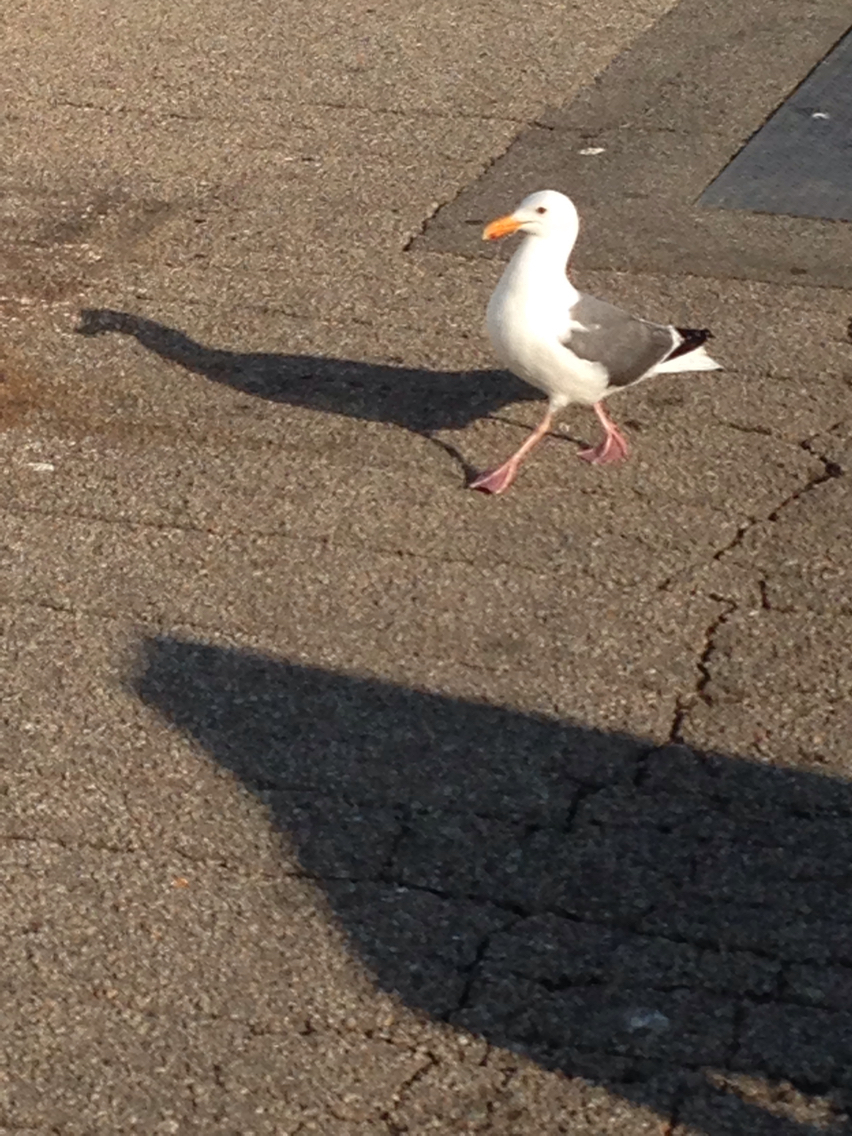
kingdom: Animalia
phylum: Chordata
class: Aves
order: Charadriiformes
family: Laridae
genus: Larus
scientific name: Larus occidentalis
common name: Western gull
